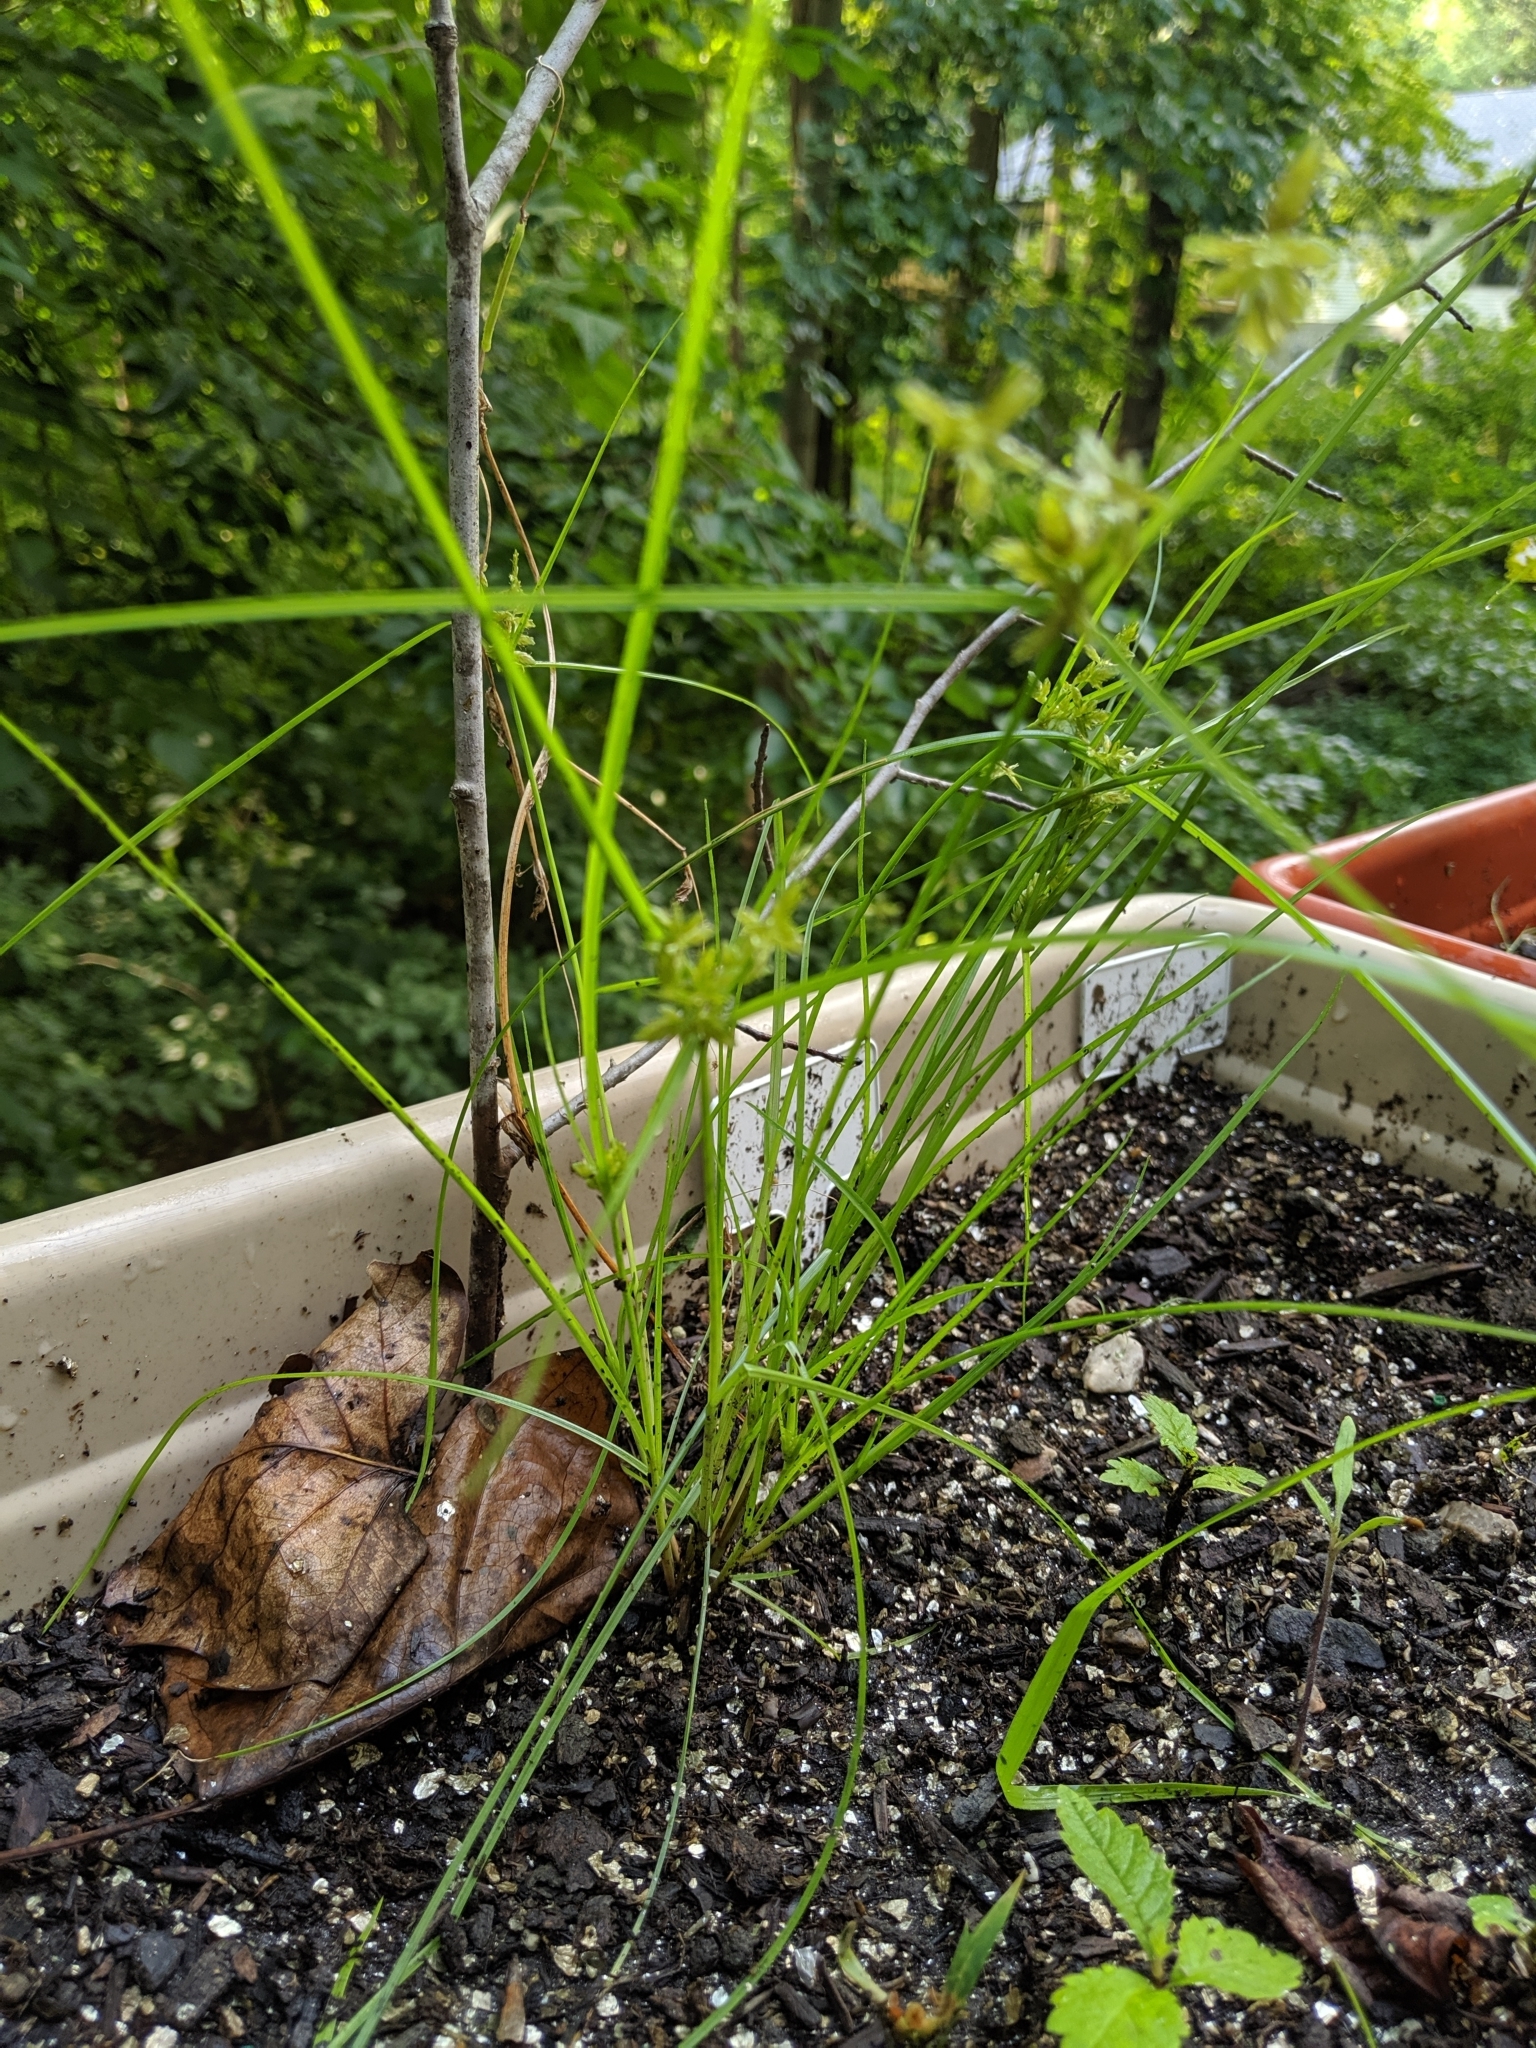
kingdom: Plantae
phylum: Tracheophyta
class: Liliopsida
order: Poales
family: Cyperaceae
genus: Cyperus
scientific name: Cyperus bipartitus
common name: Brook flatsedge
